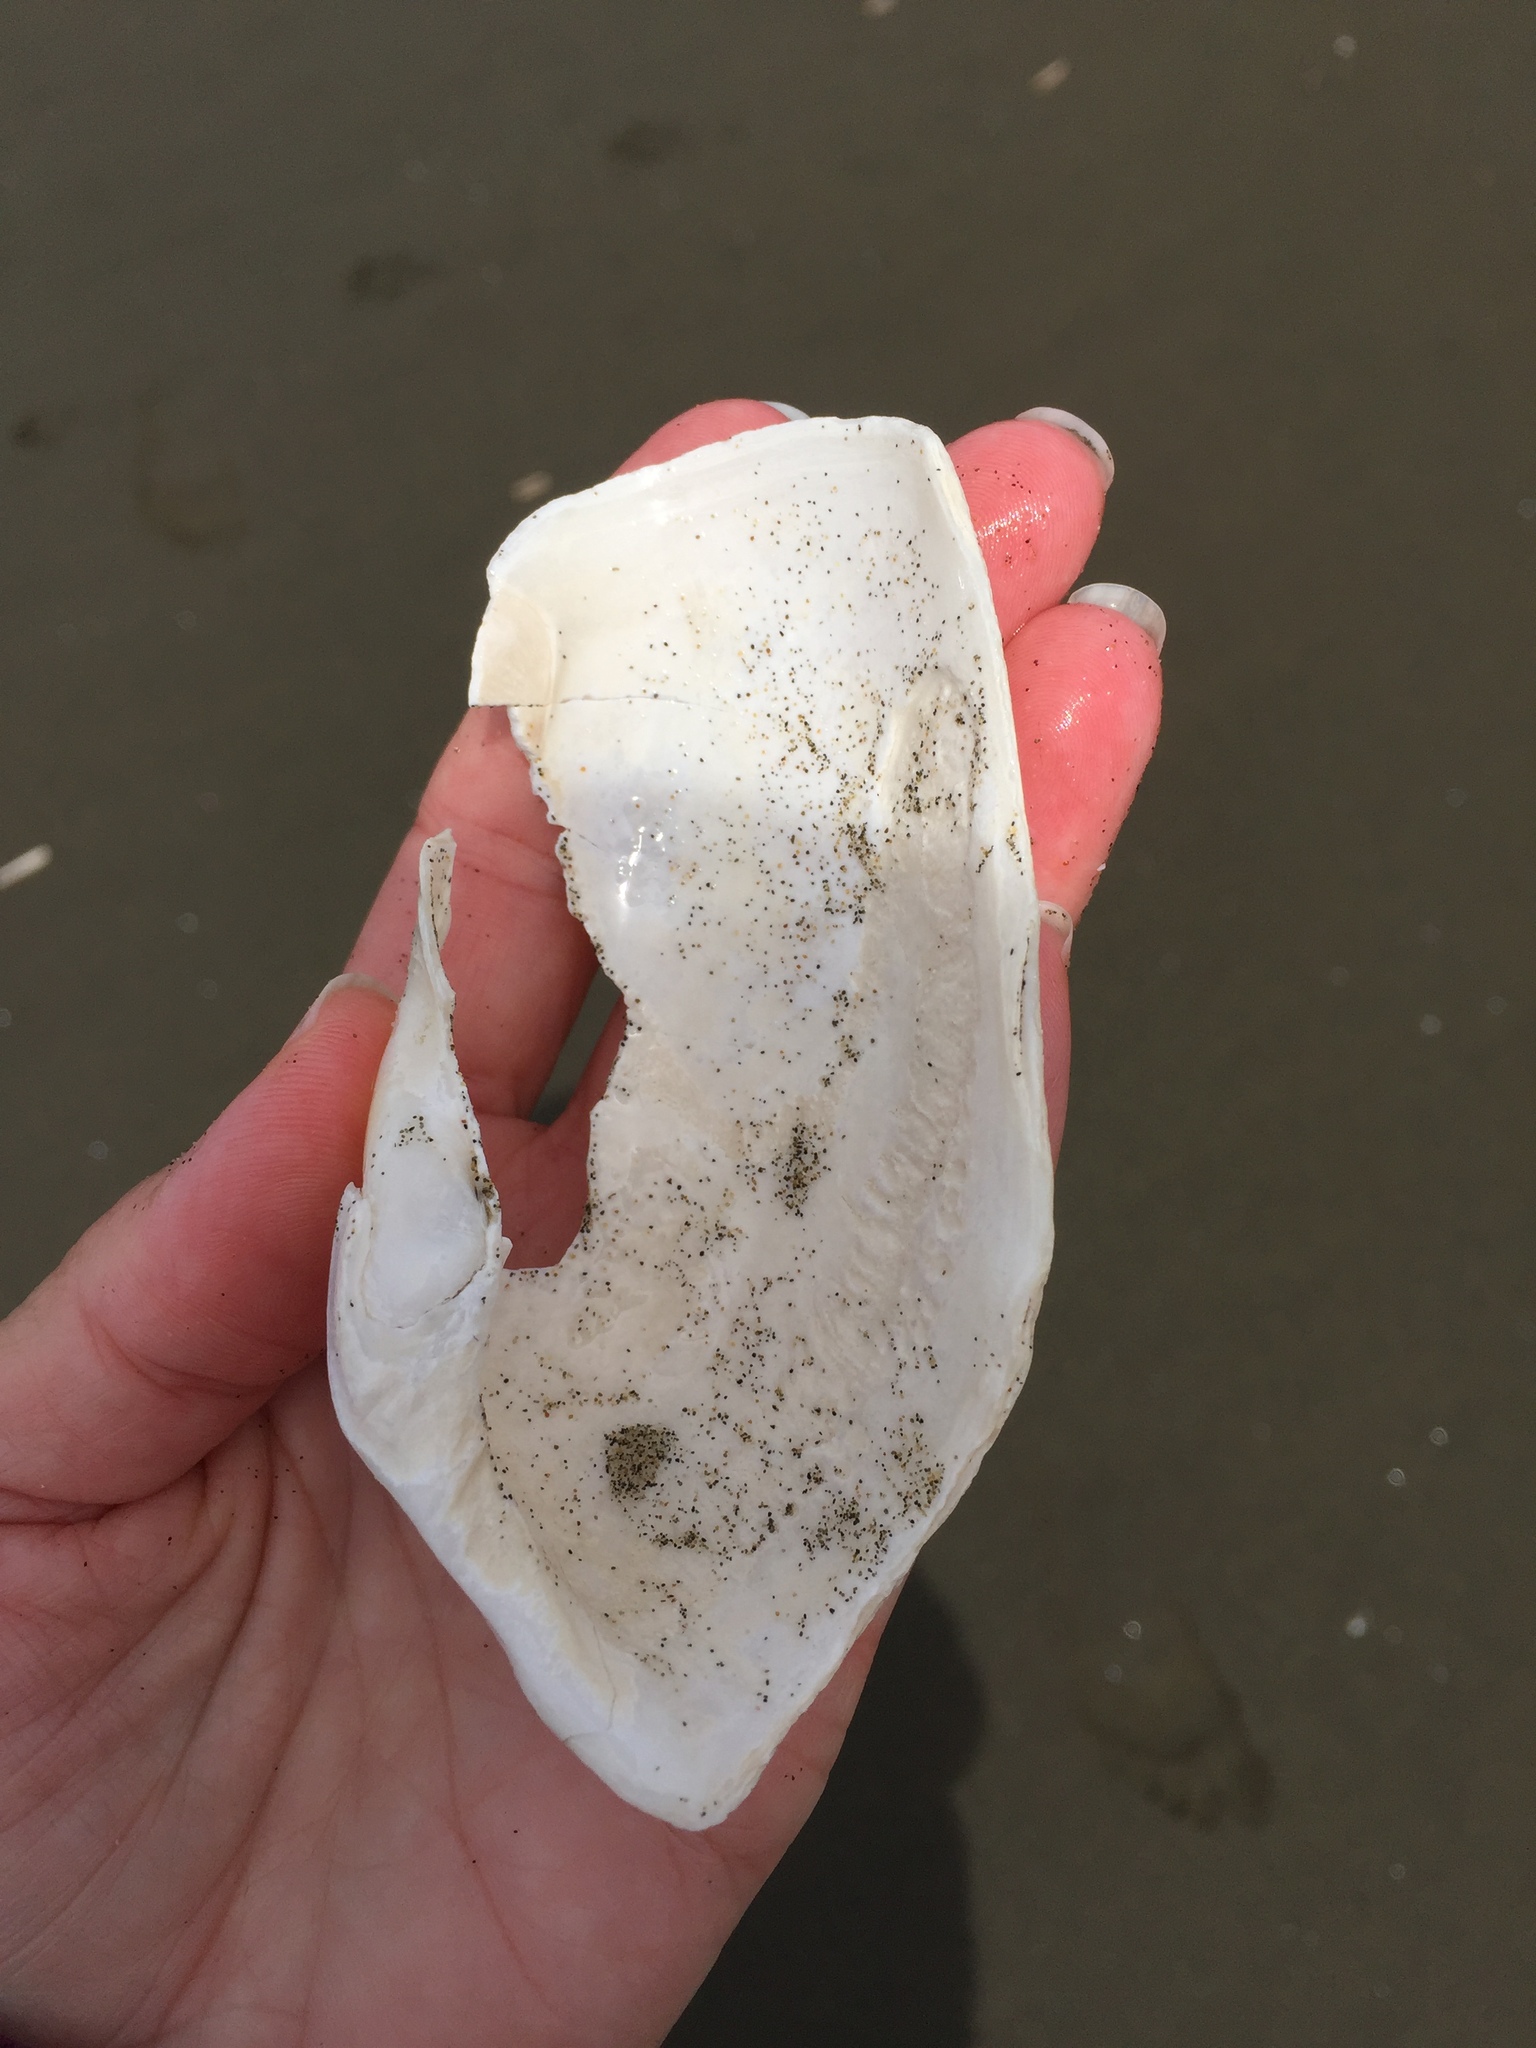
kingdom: Animalia
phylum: Mollusca
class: Bivalvia
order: Myida
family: Pholadidae
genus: Zirfaea
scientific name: Zirfaea pilsbryi
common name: Rough piddock
